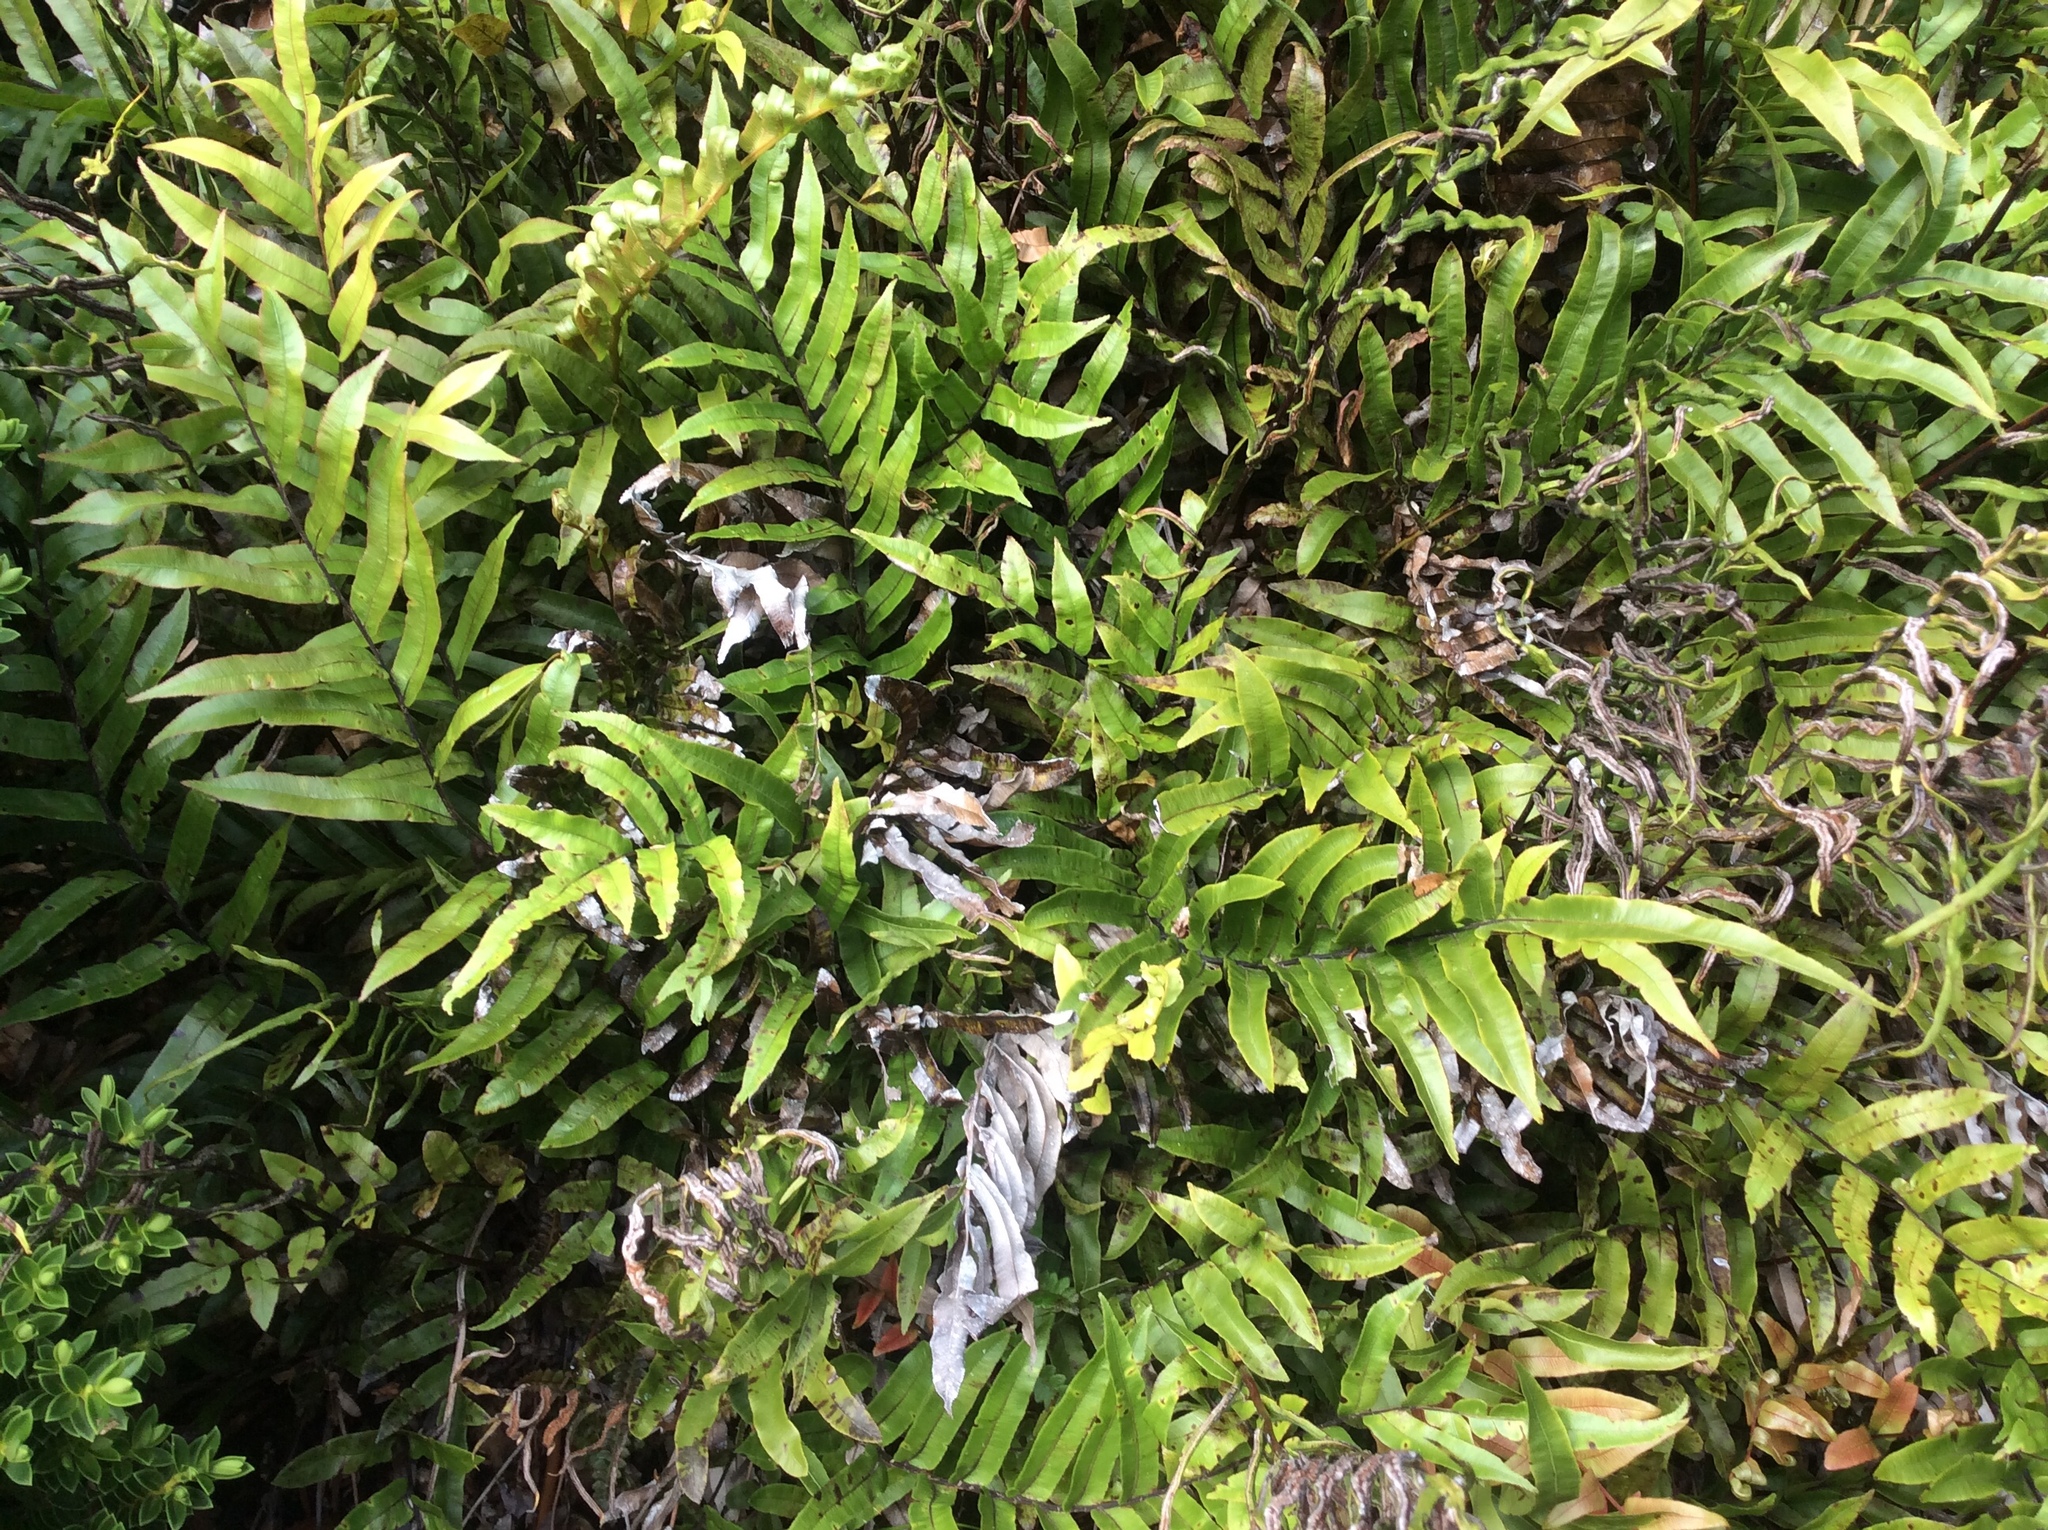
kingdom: Plantae
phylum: Tracheophyta
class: Polypodiopsida
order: Polypodiales
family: Blechnaceae
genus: Parablechnum
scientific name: Parablechnum minus
